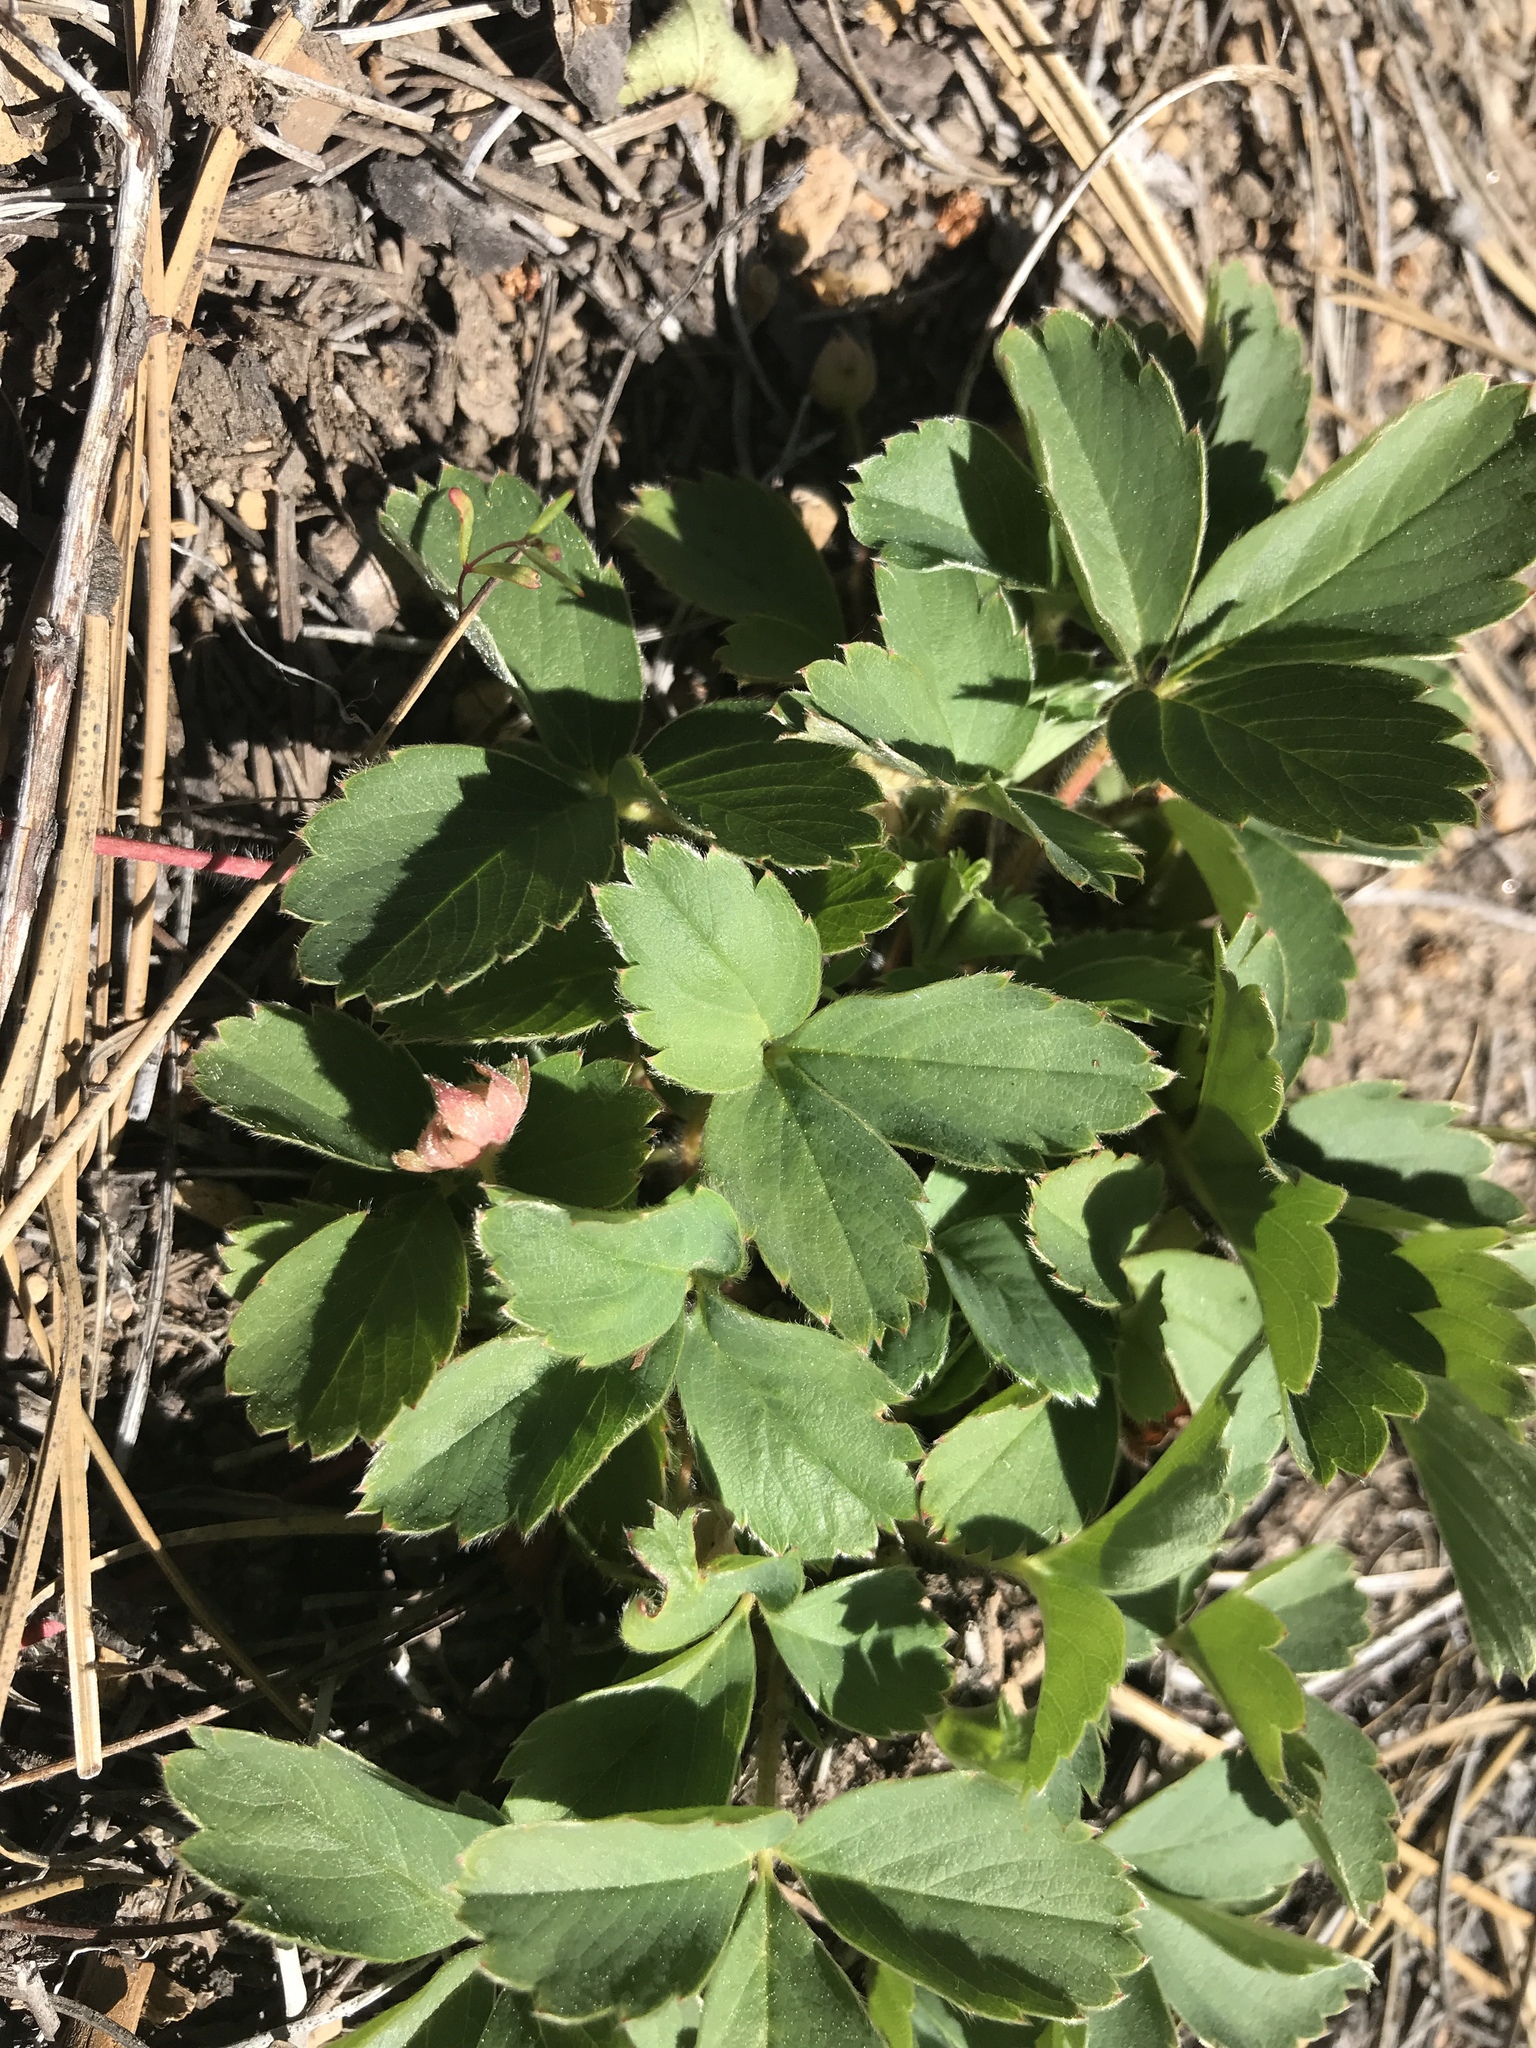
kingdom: Plantae
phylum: Tracheophyta
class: Magnoliopsida
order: Rosales
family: Rosaceae
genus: Fragaria
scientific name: Fragaria virginiana
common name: Thickleaved wild strawberry
